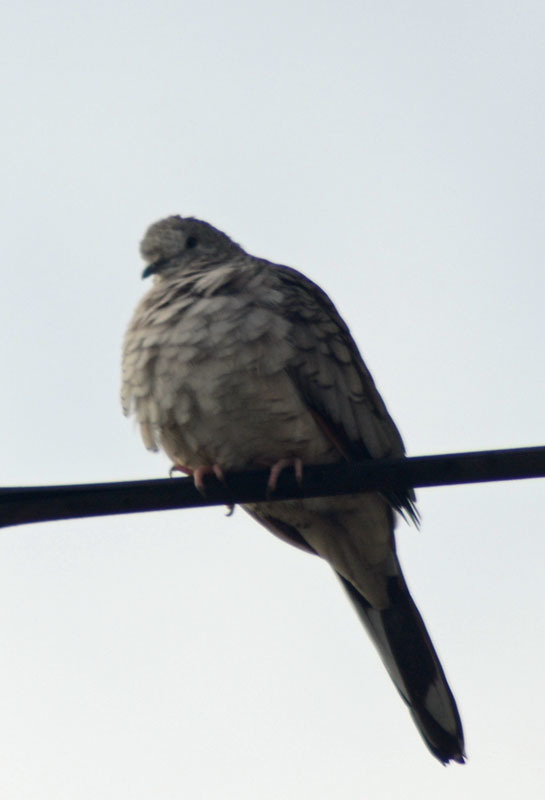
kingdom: Animalia
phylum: Chordata
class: Aves
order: Columbiformes
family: Columbidae
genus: Columbina
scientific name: Columbina inca
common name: Inca dove
